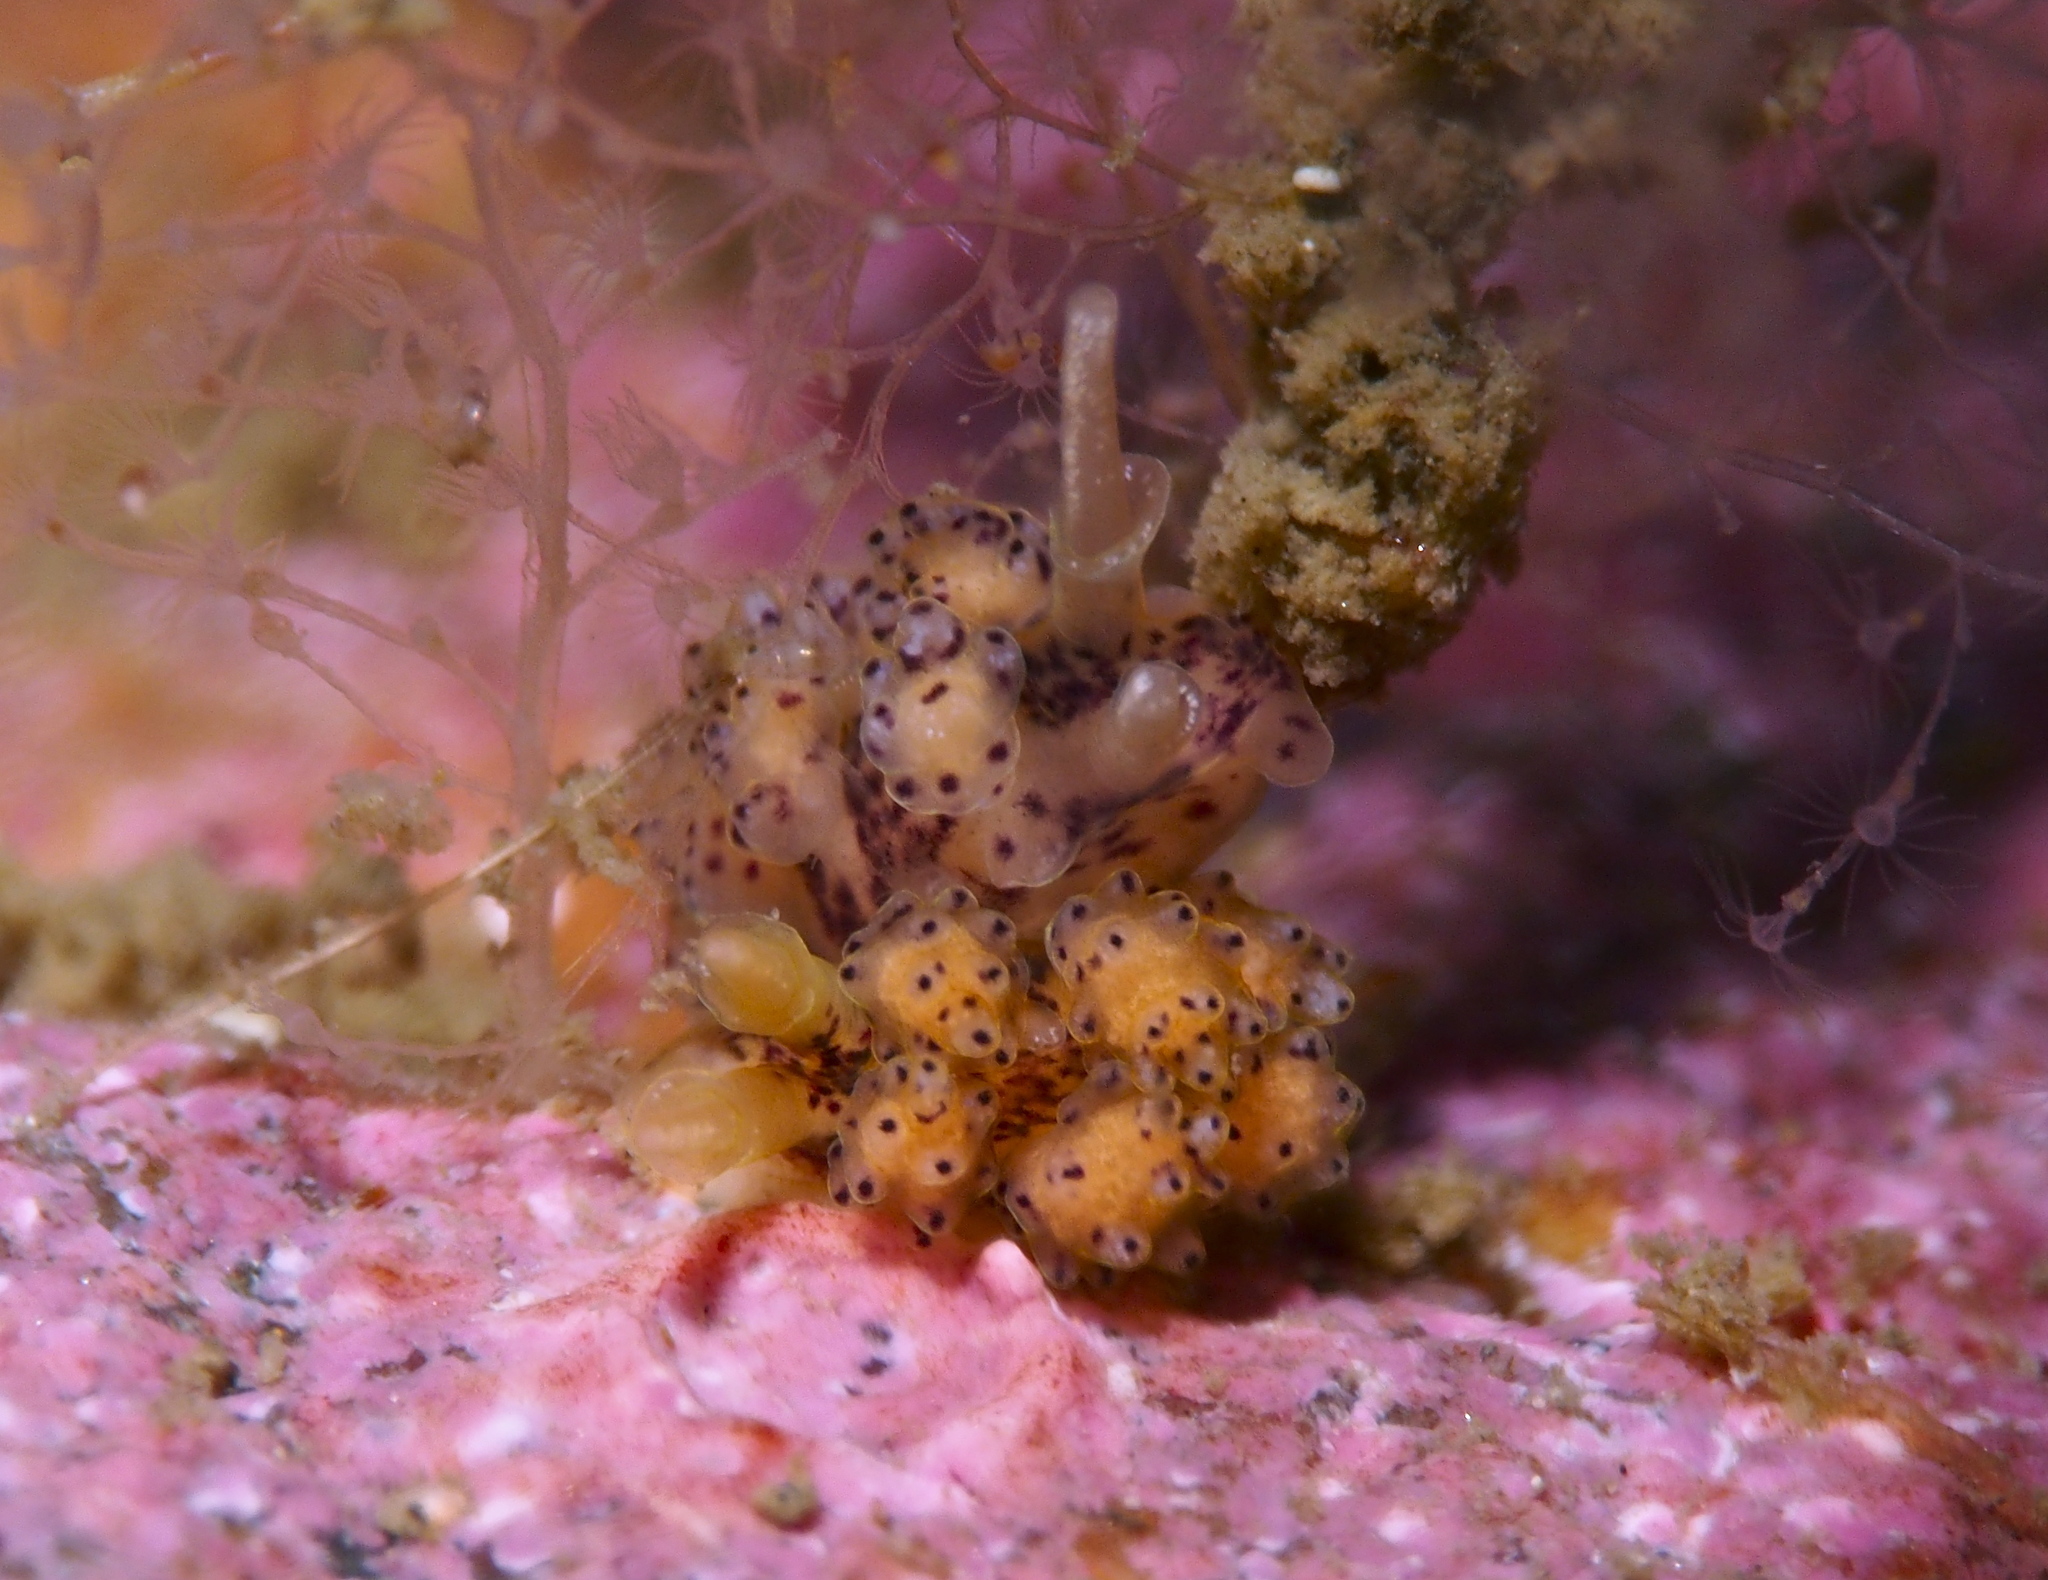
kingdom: Animalia
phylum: Mollusca
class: Gastropoda
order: Nudibranchia
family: Dotidae
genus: Doto
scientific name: Doto dunnei
